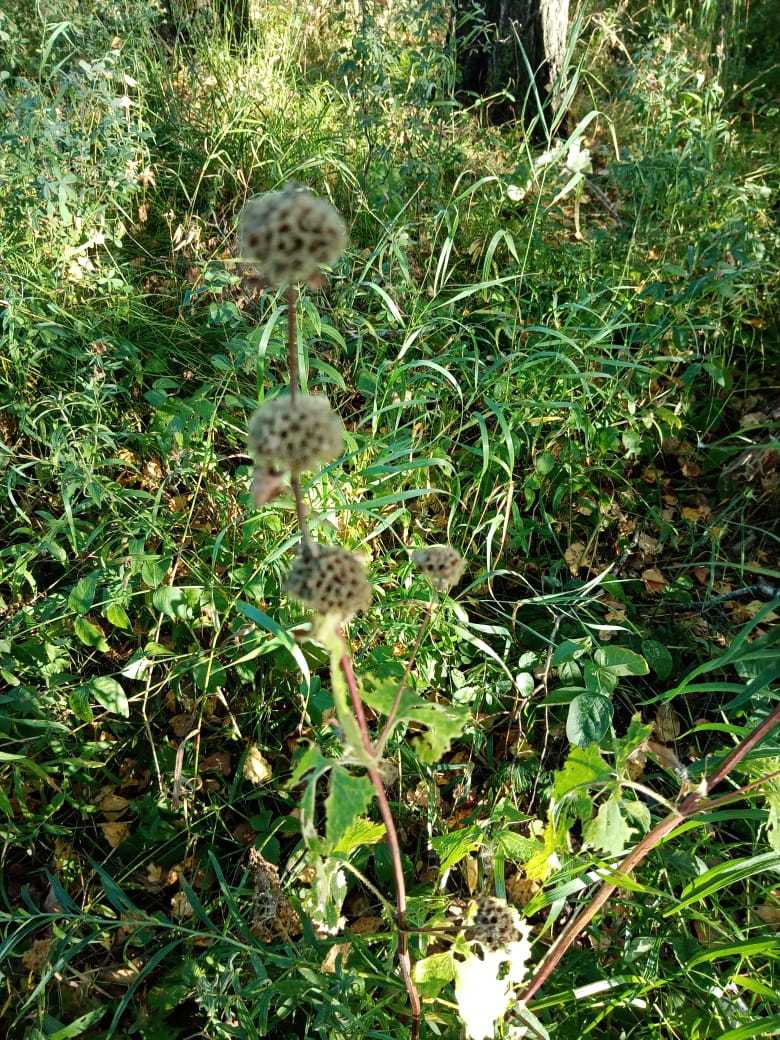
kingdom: Plantae
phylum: Tracheophyta
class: Magnoliopsida
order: Lamiales
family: Lamiaceae
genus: Phlomoides
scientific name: Phlomoides tuberosa
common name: Tuberous jerusalem sage
